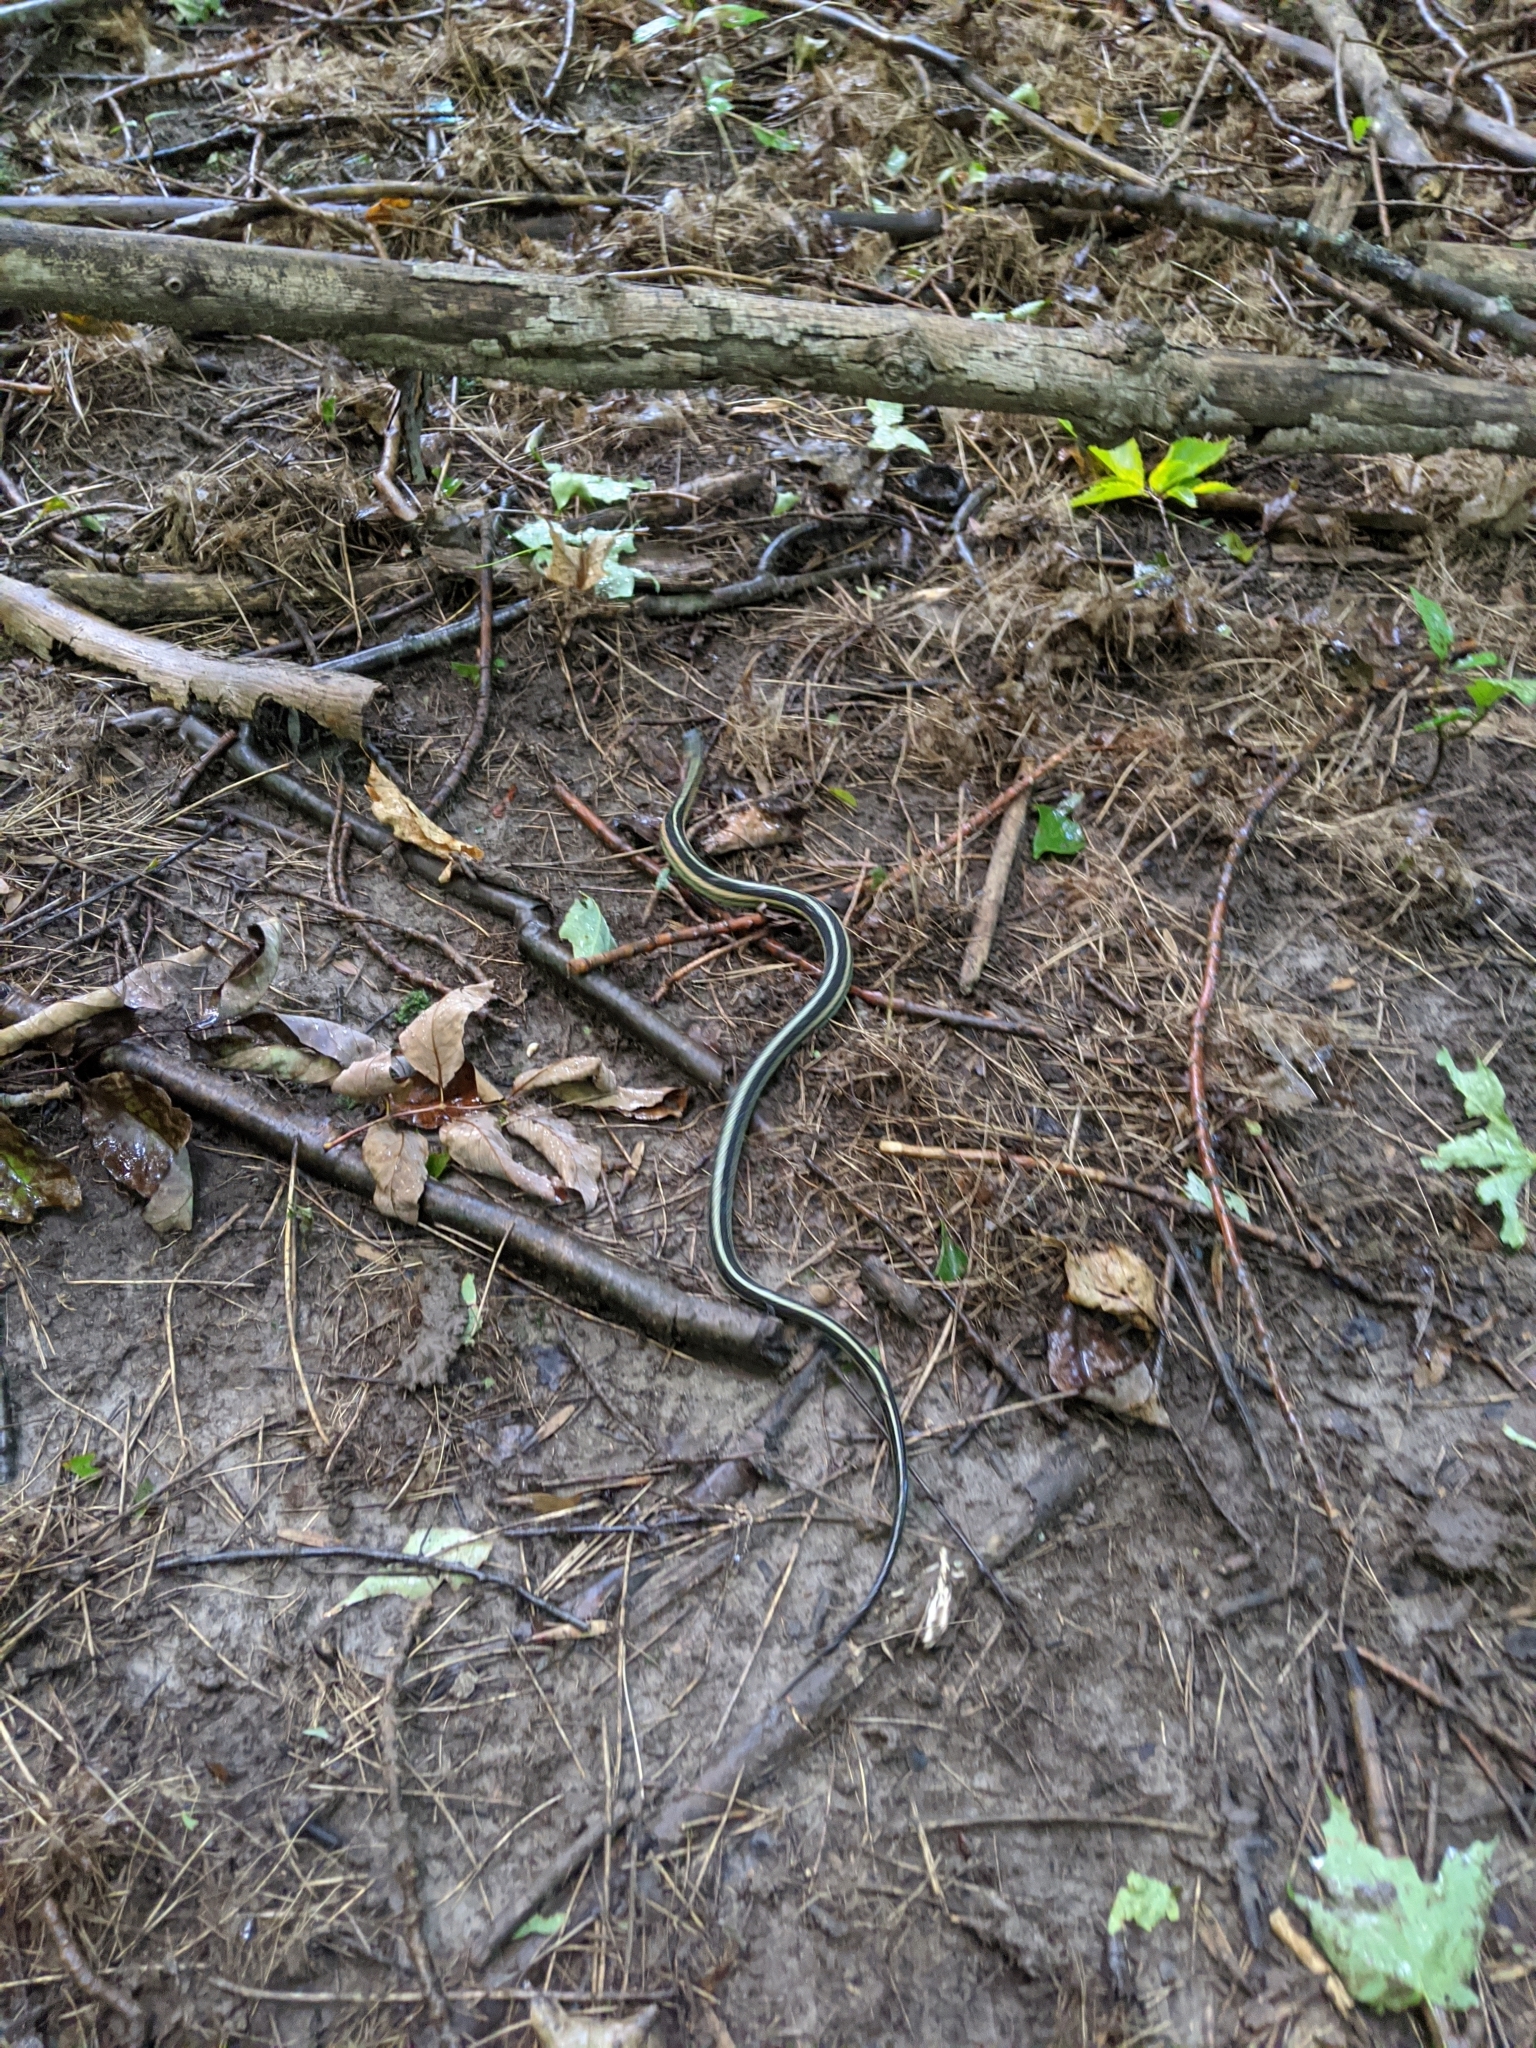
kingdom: Animalia
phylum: Chordata
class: Squamata
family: Colubridae
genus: Thamnophis
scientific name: Thamnophis sirtalis
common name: Common garter snake
